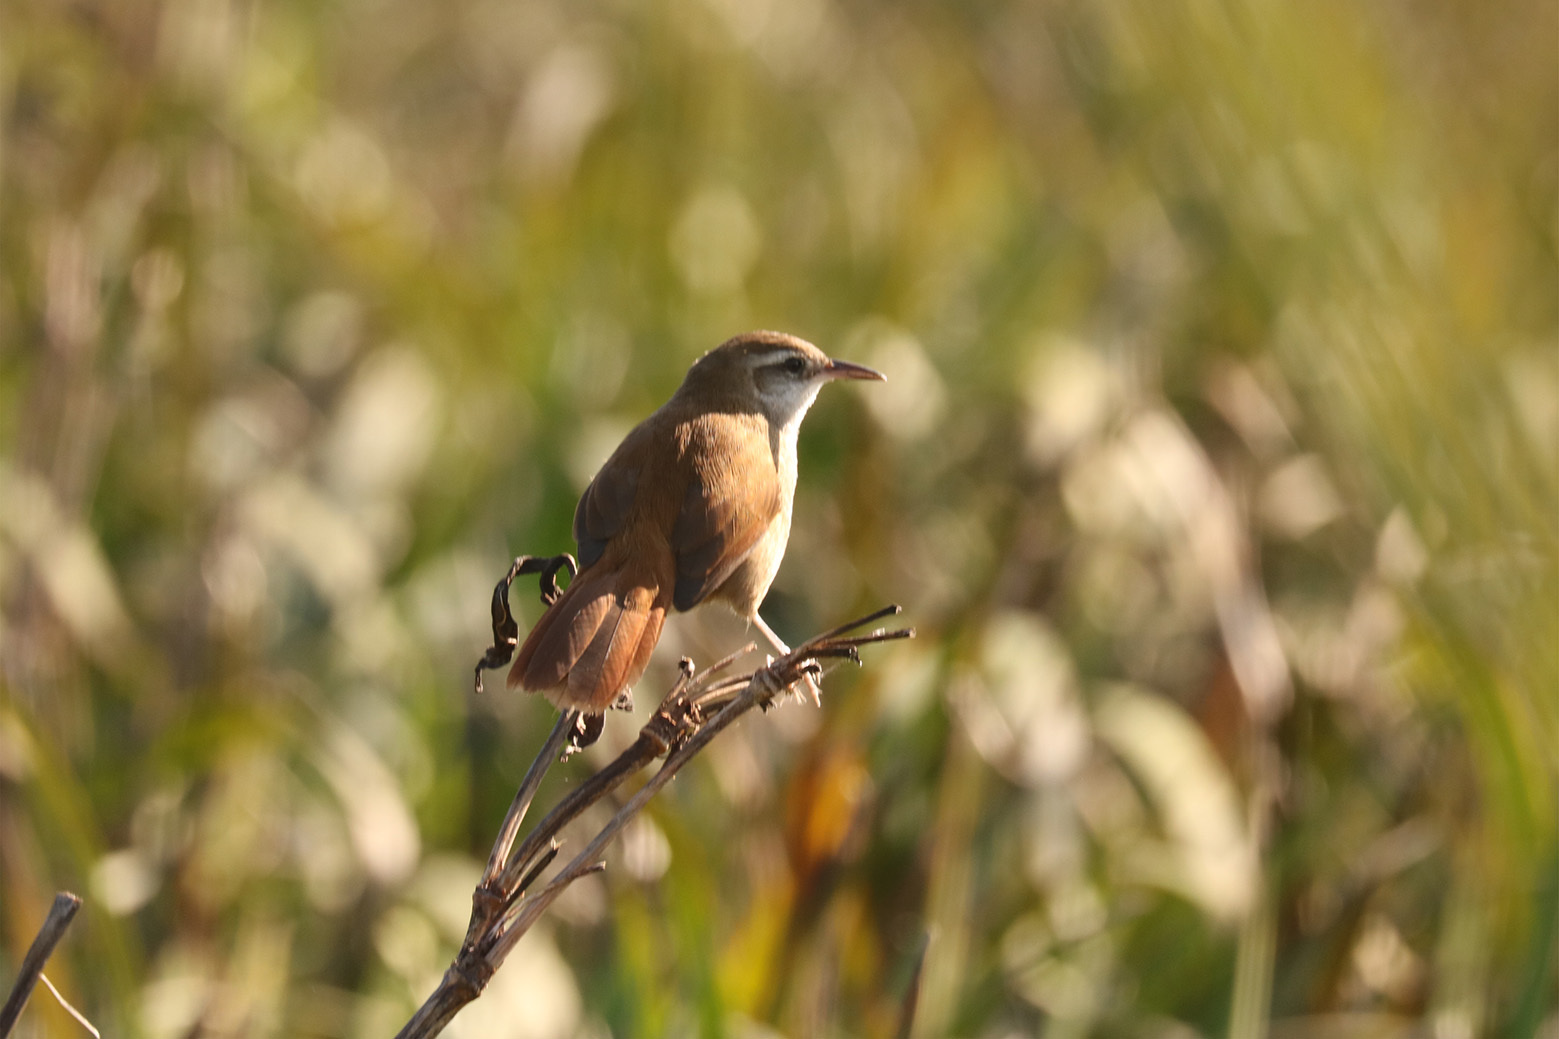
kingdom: Animalia
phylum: Chordata
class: Aves
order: Passeriformes
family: Furnariidae
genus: Limnornis
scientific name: Limnornis curvirostris
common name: Curve-billed reedhaunter
